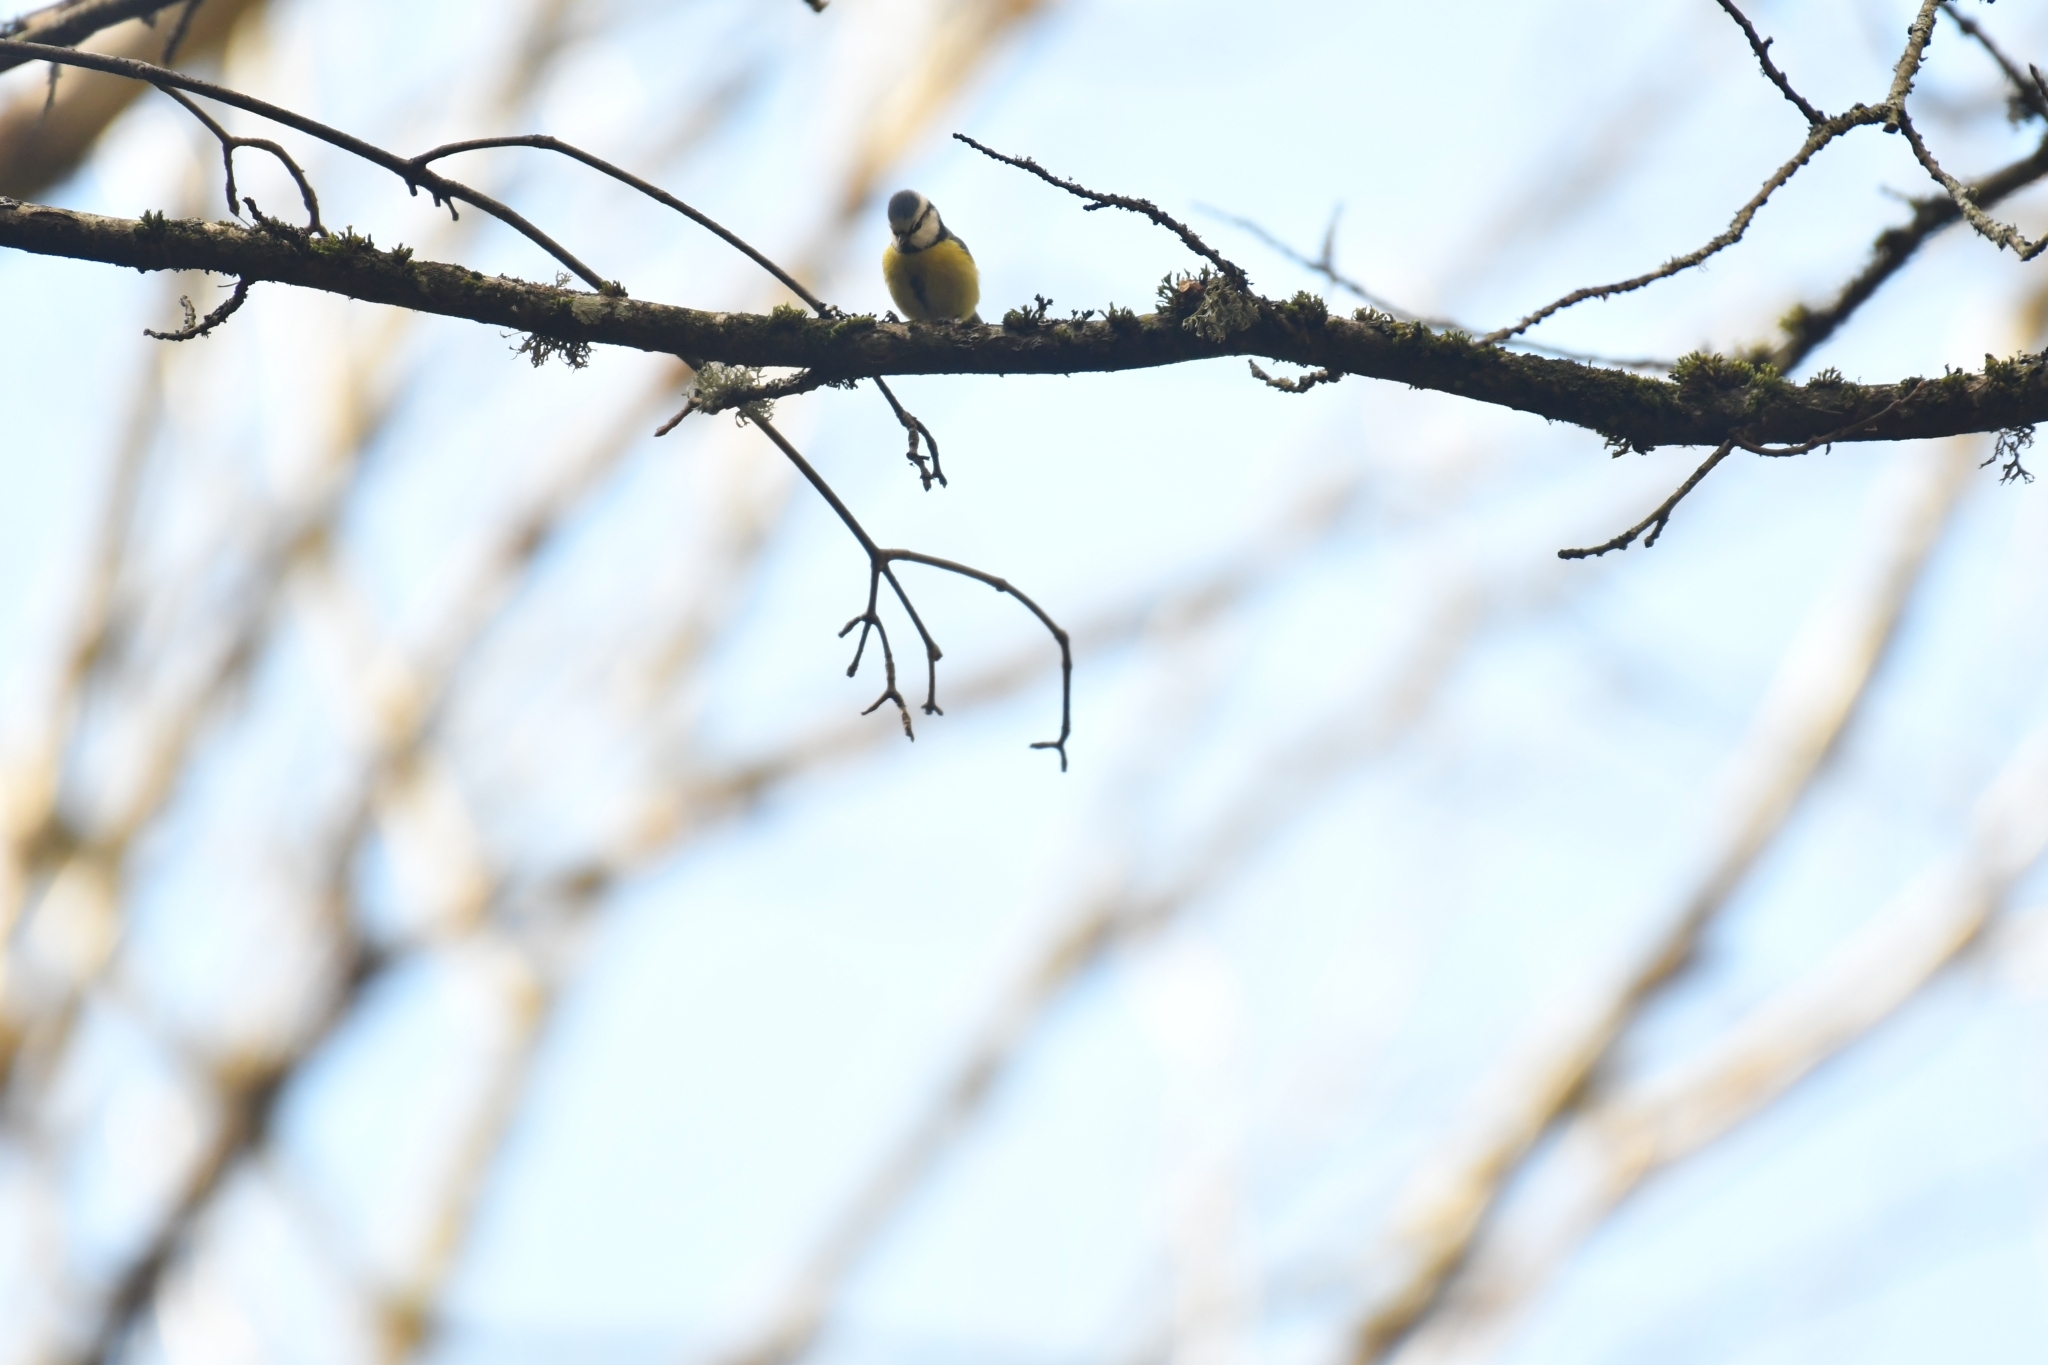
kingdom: Animalia
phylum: Chordata
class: Aves
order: Passeriformes
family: Paridae
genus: Cyanistes
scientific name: Cyanistes caeruleus
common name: Eurasian blue tit
